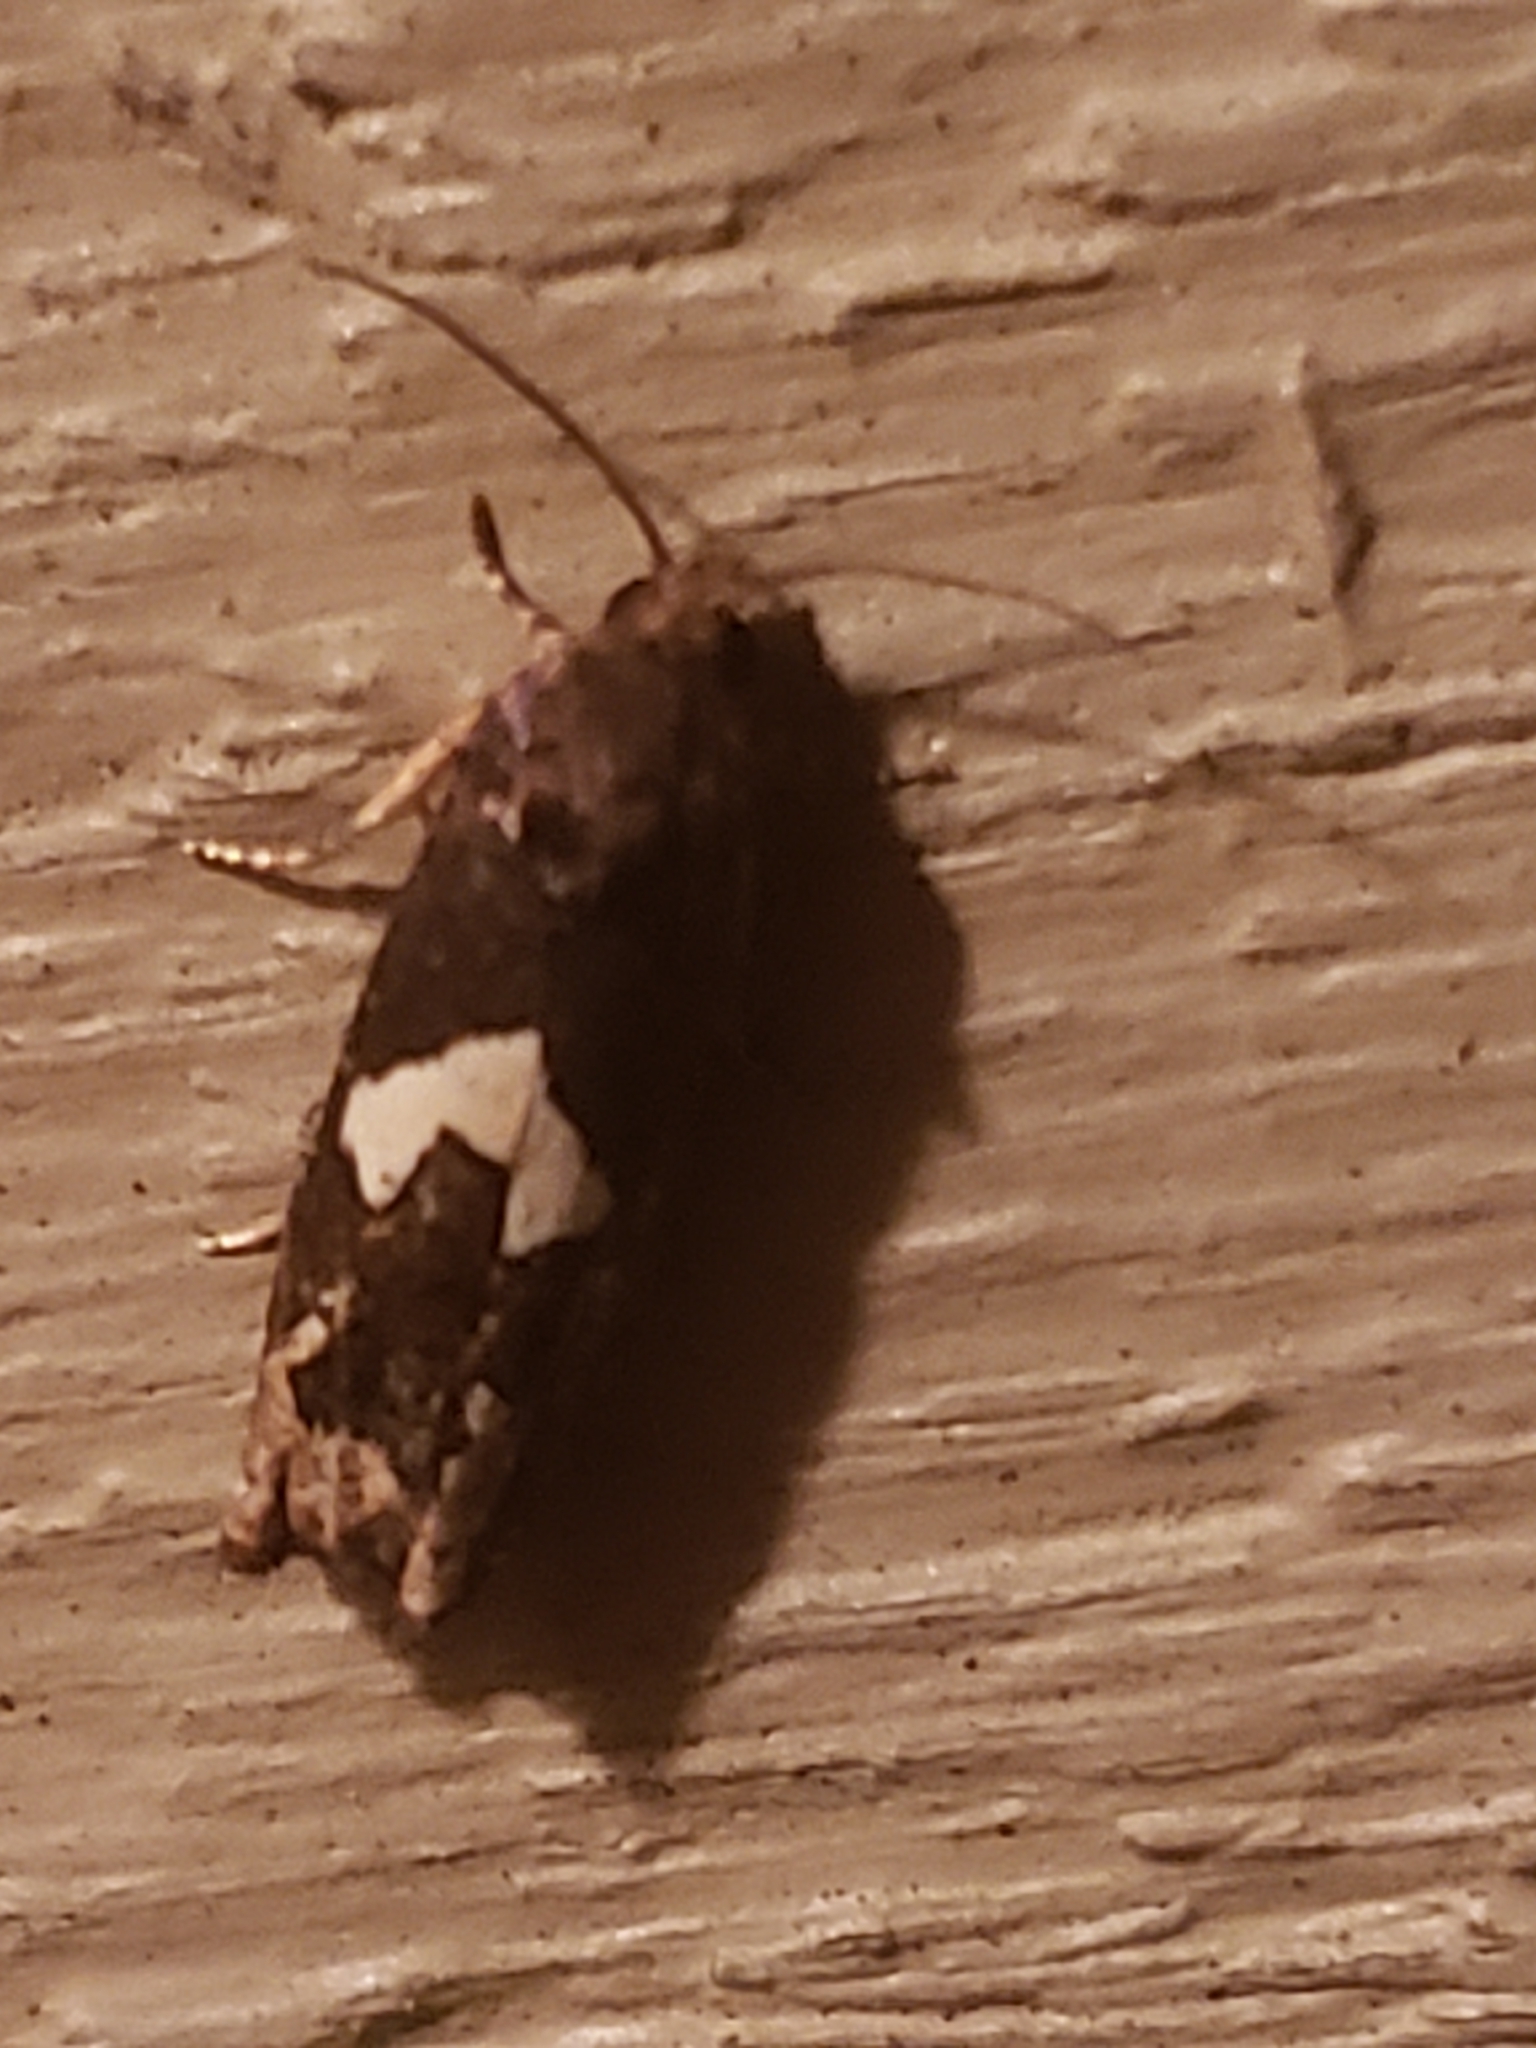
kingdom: Animalia
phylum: Arthropoda
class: Insecta
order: Lepidoptera
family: Tortricidae
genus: Epiblema
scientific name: Epiblema otiosana
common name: Bidens borer moth
